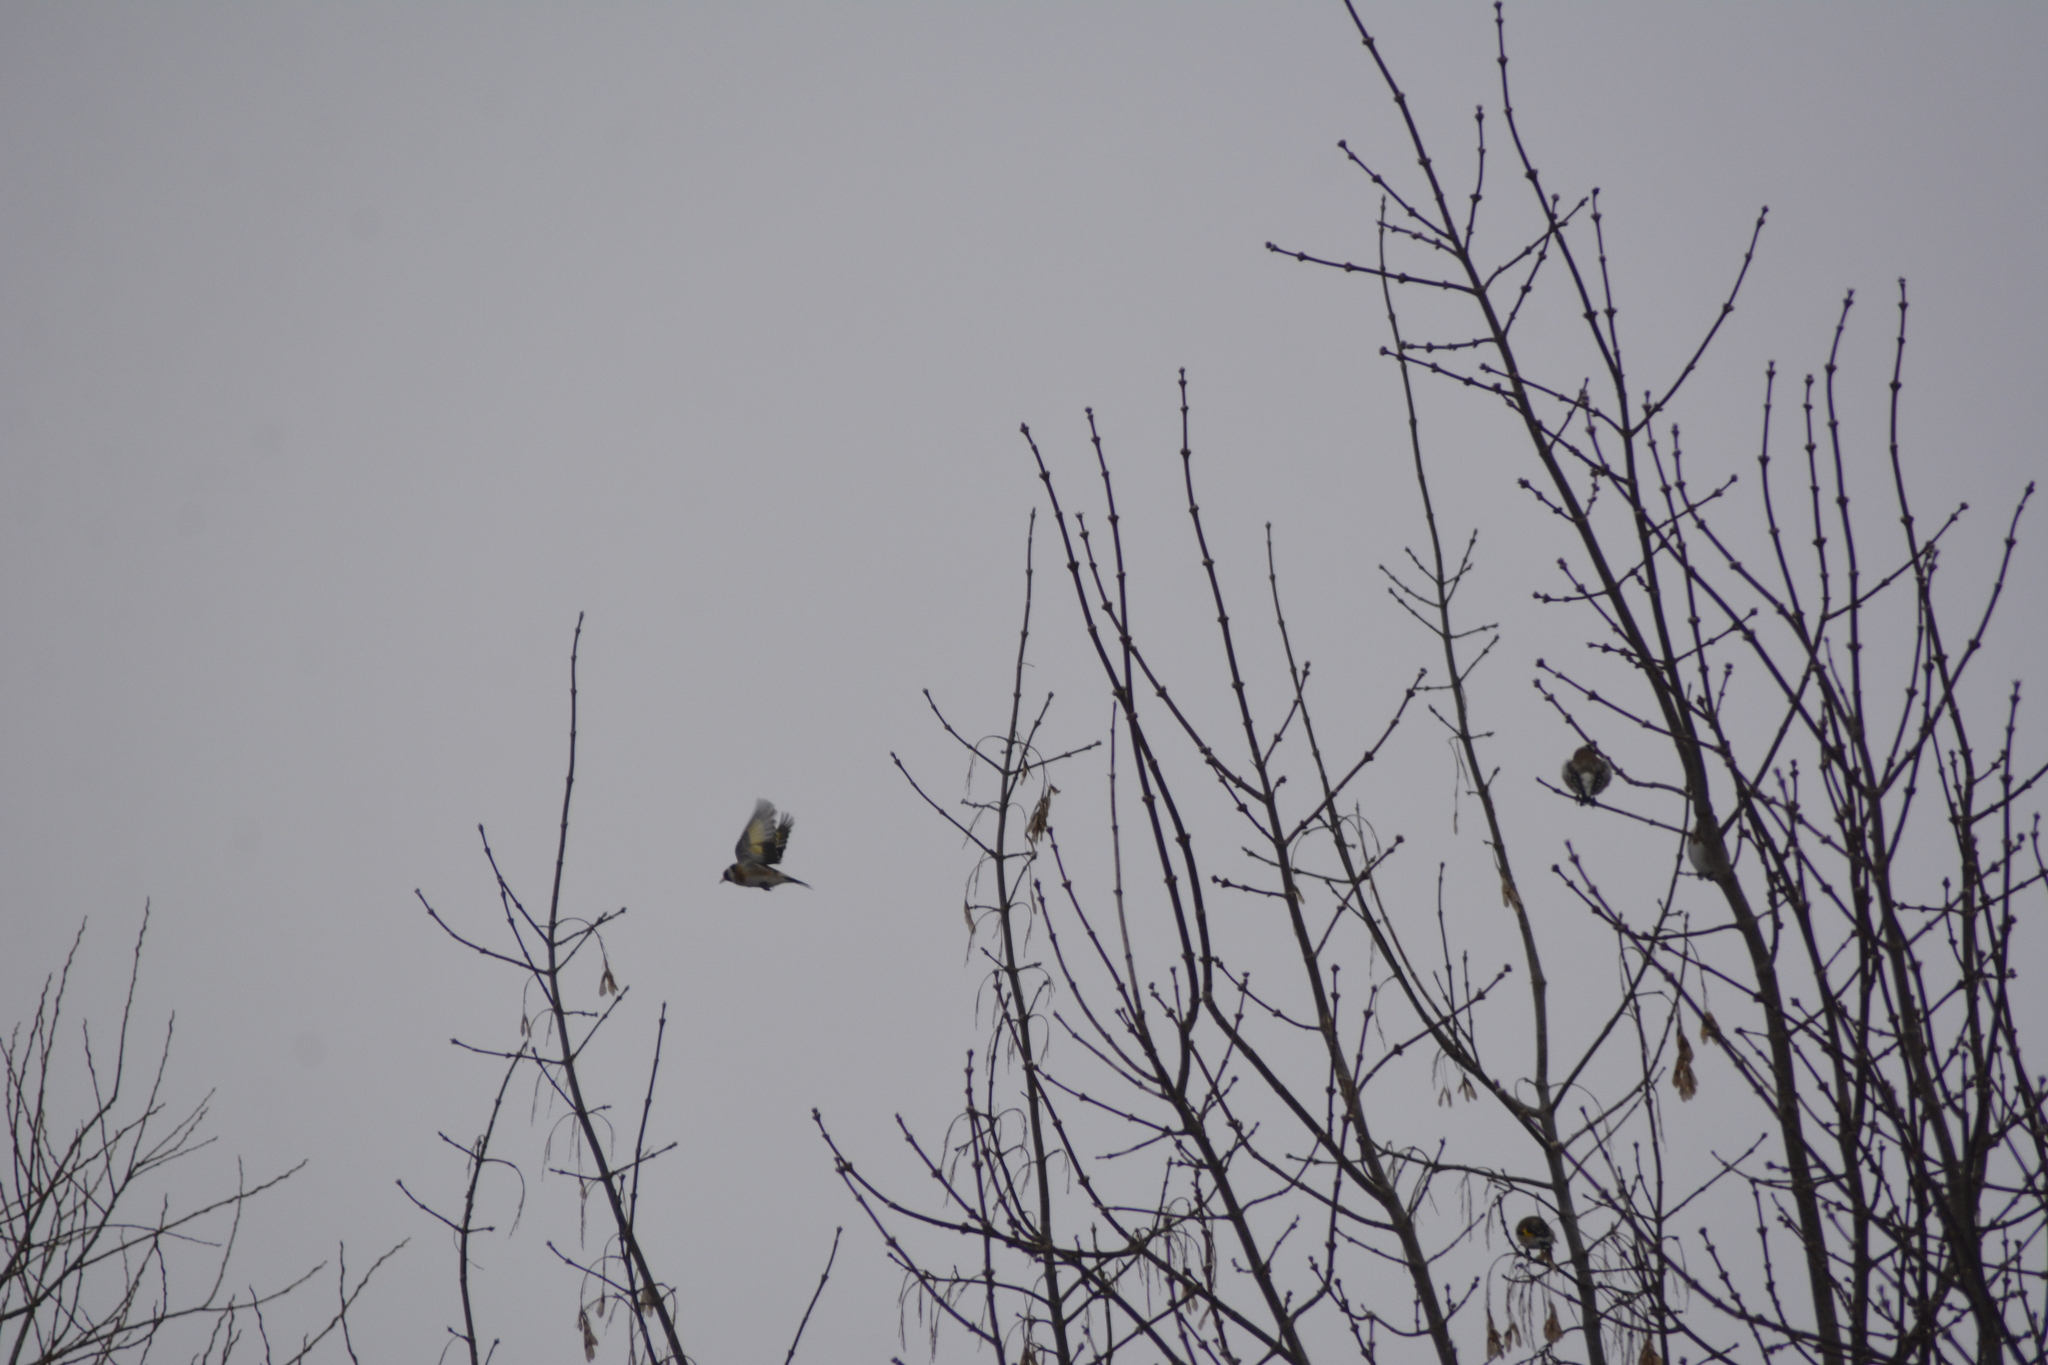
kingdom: Animalia
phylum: Chordata
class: Aves
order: Passeriformes
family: Fringillidae
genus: Carduelis
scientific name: Carduelis carduelis
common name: European goldfinch
